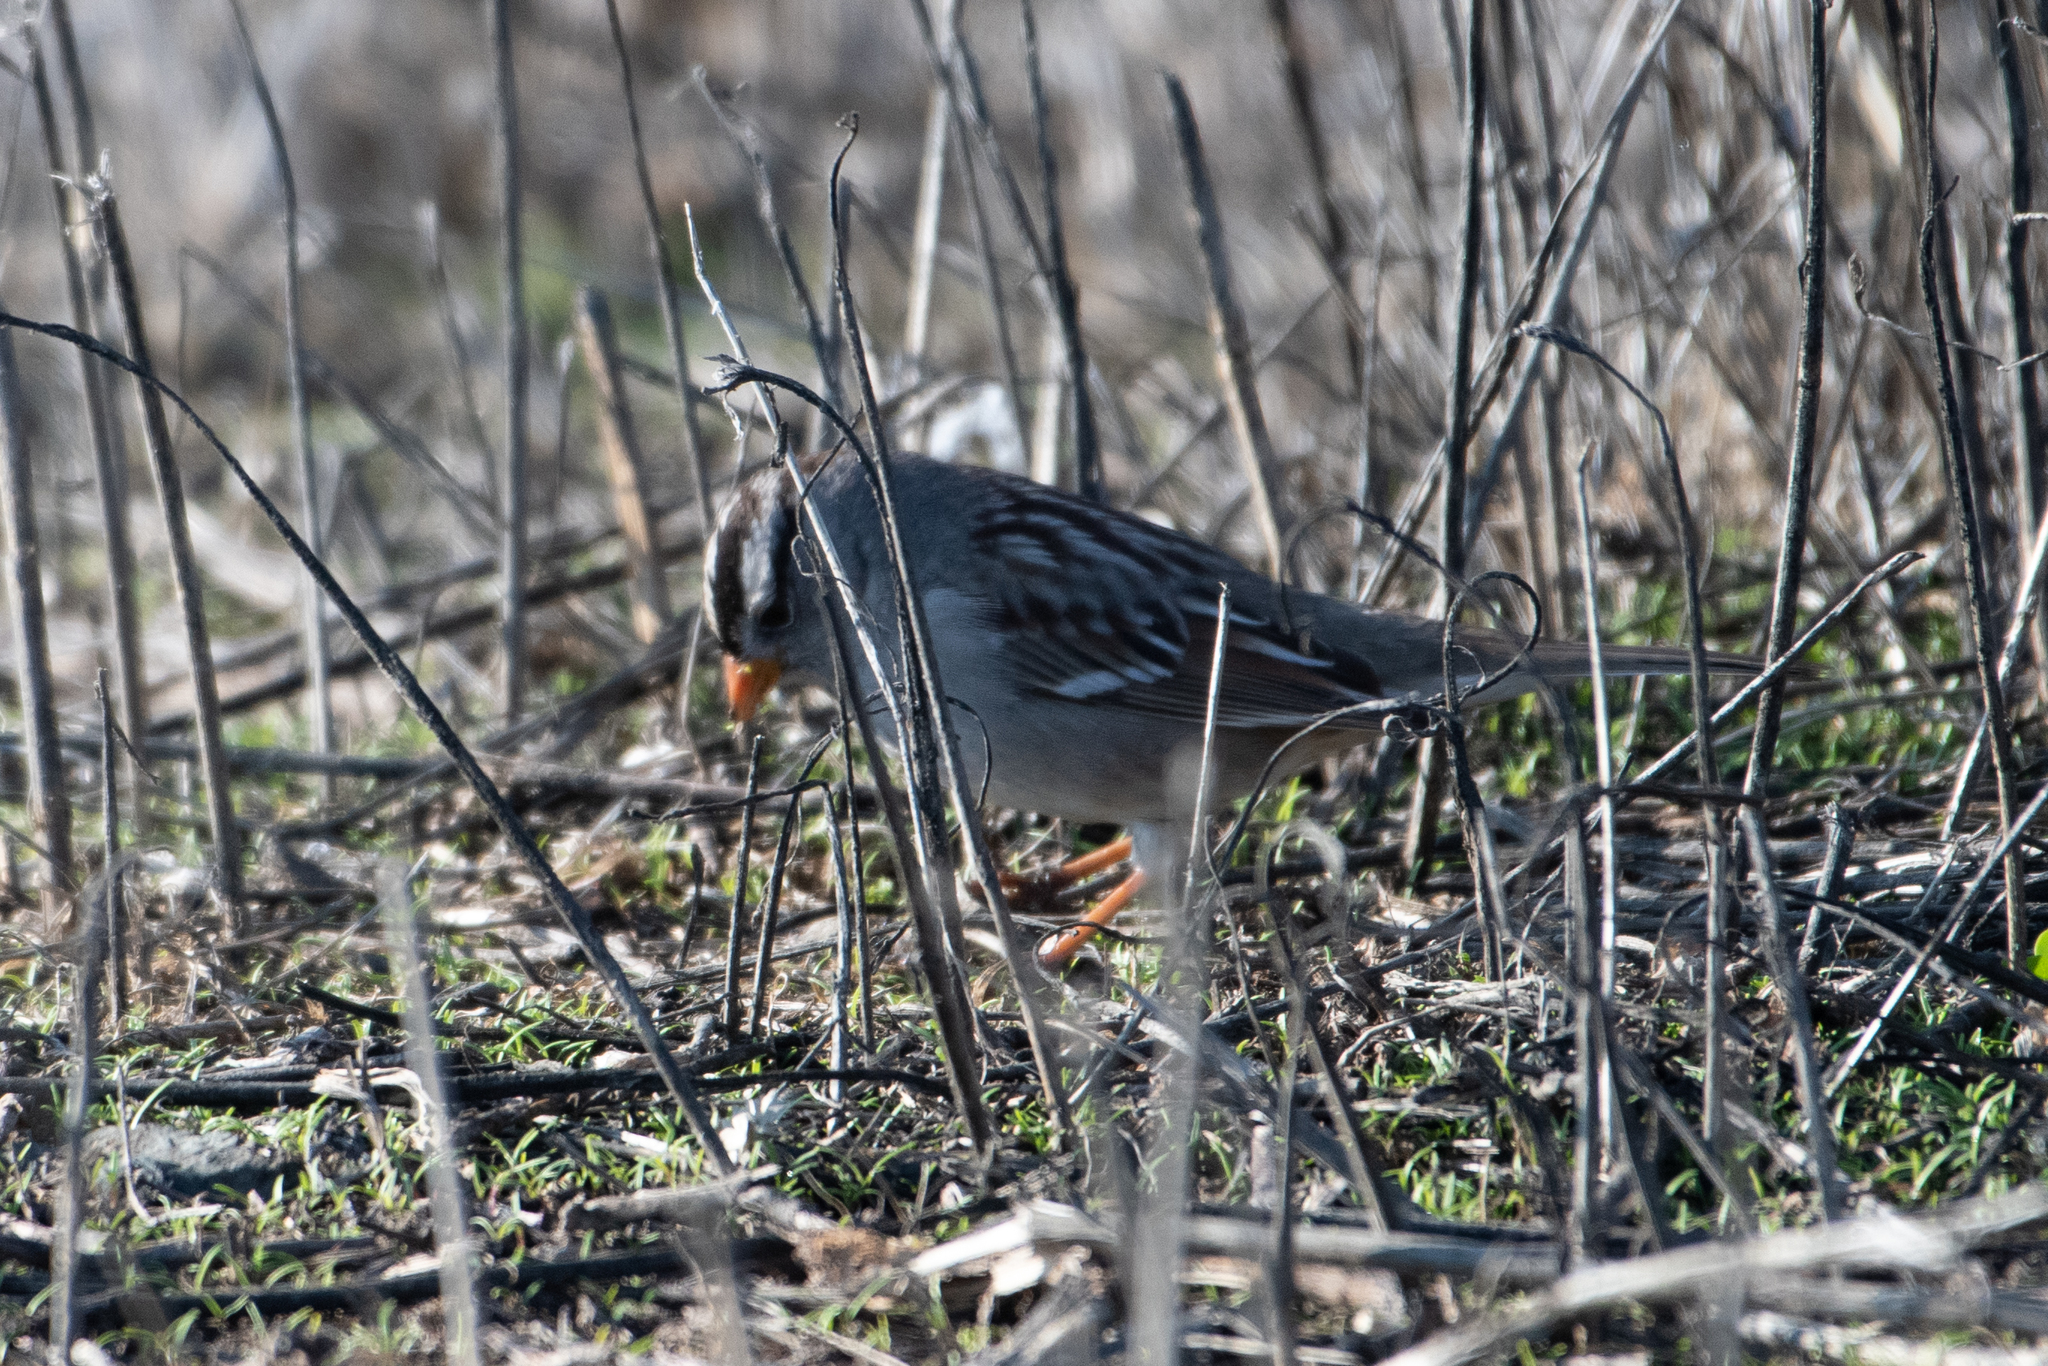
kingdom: Animalia
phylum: Chordata
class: Aves
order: Passeriformes
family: Passerellidae
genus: Zonotrichia
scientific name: Zonotrichia leucophrys
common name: White-crowned sparrow
